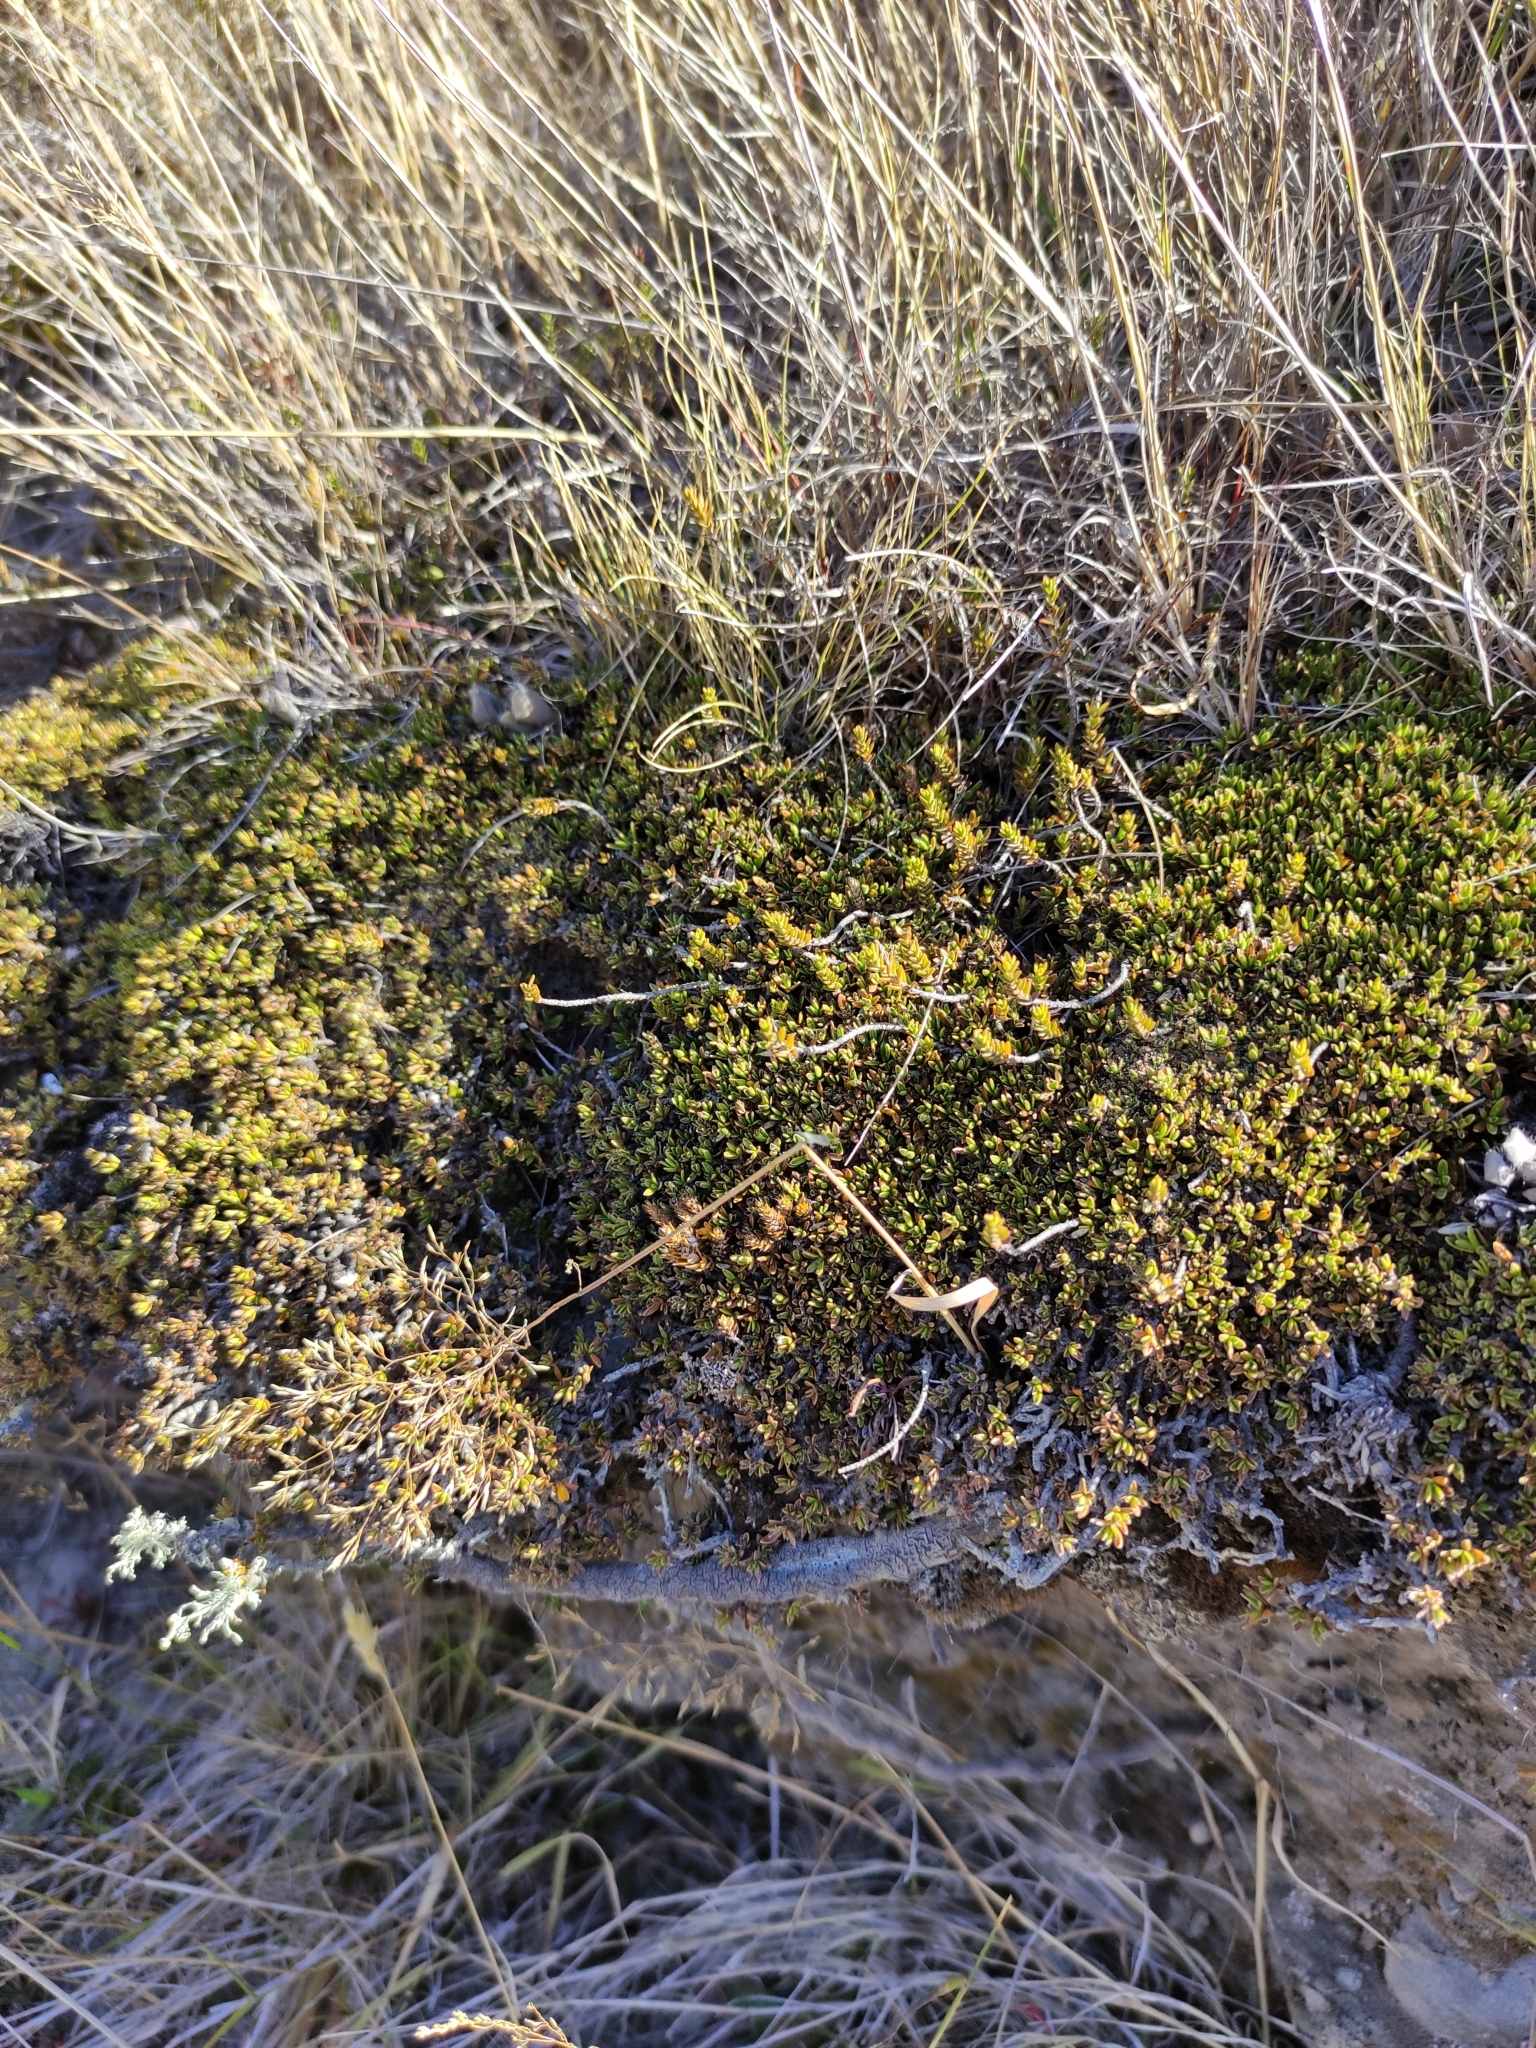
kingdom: Plantae
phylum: Tracheophyta
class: Magnoliopsida
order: Gentianales
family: Rubiaceae
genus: Coprosma
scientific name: Coprosma petriei
